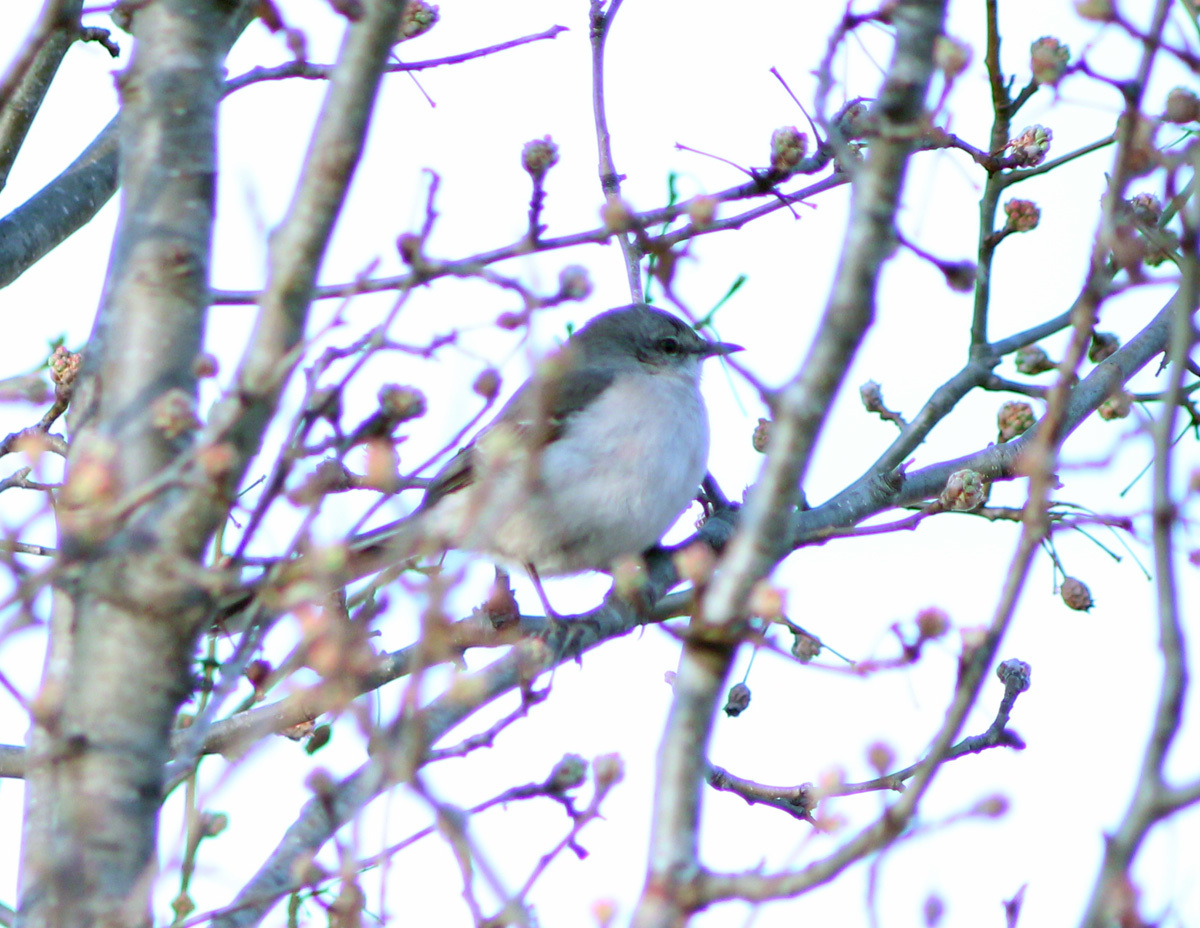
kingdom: Animalia
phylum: Chordata
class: Aves
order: Passeriformes
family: Mimidae
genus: Mimus
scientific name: Mimus polyglottos
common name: Northern mockingbird
